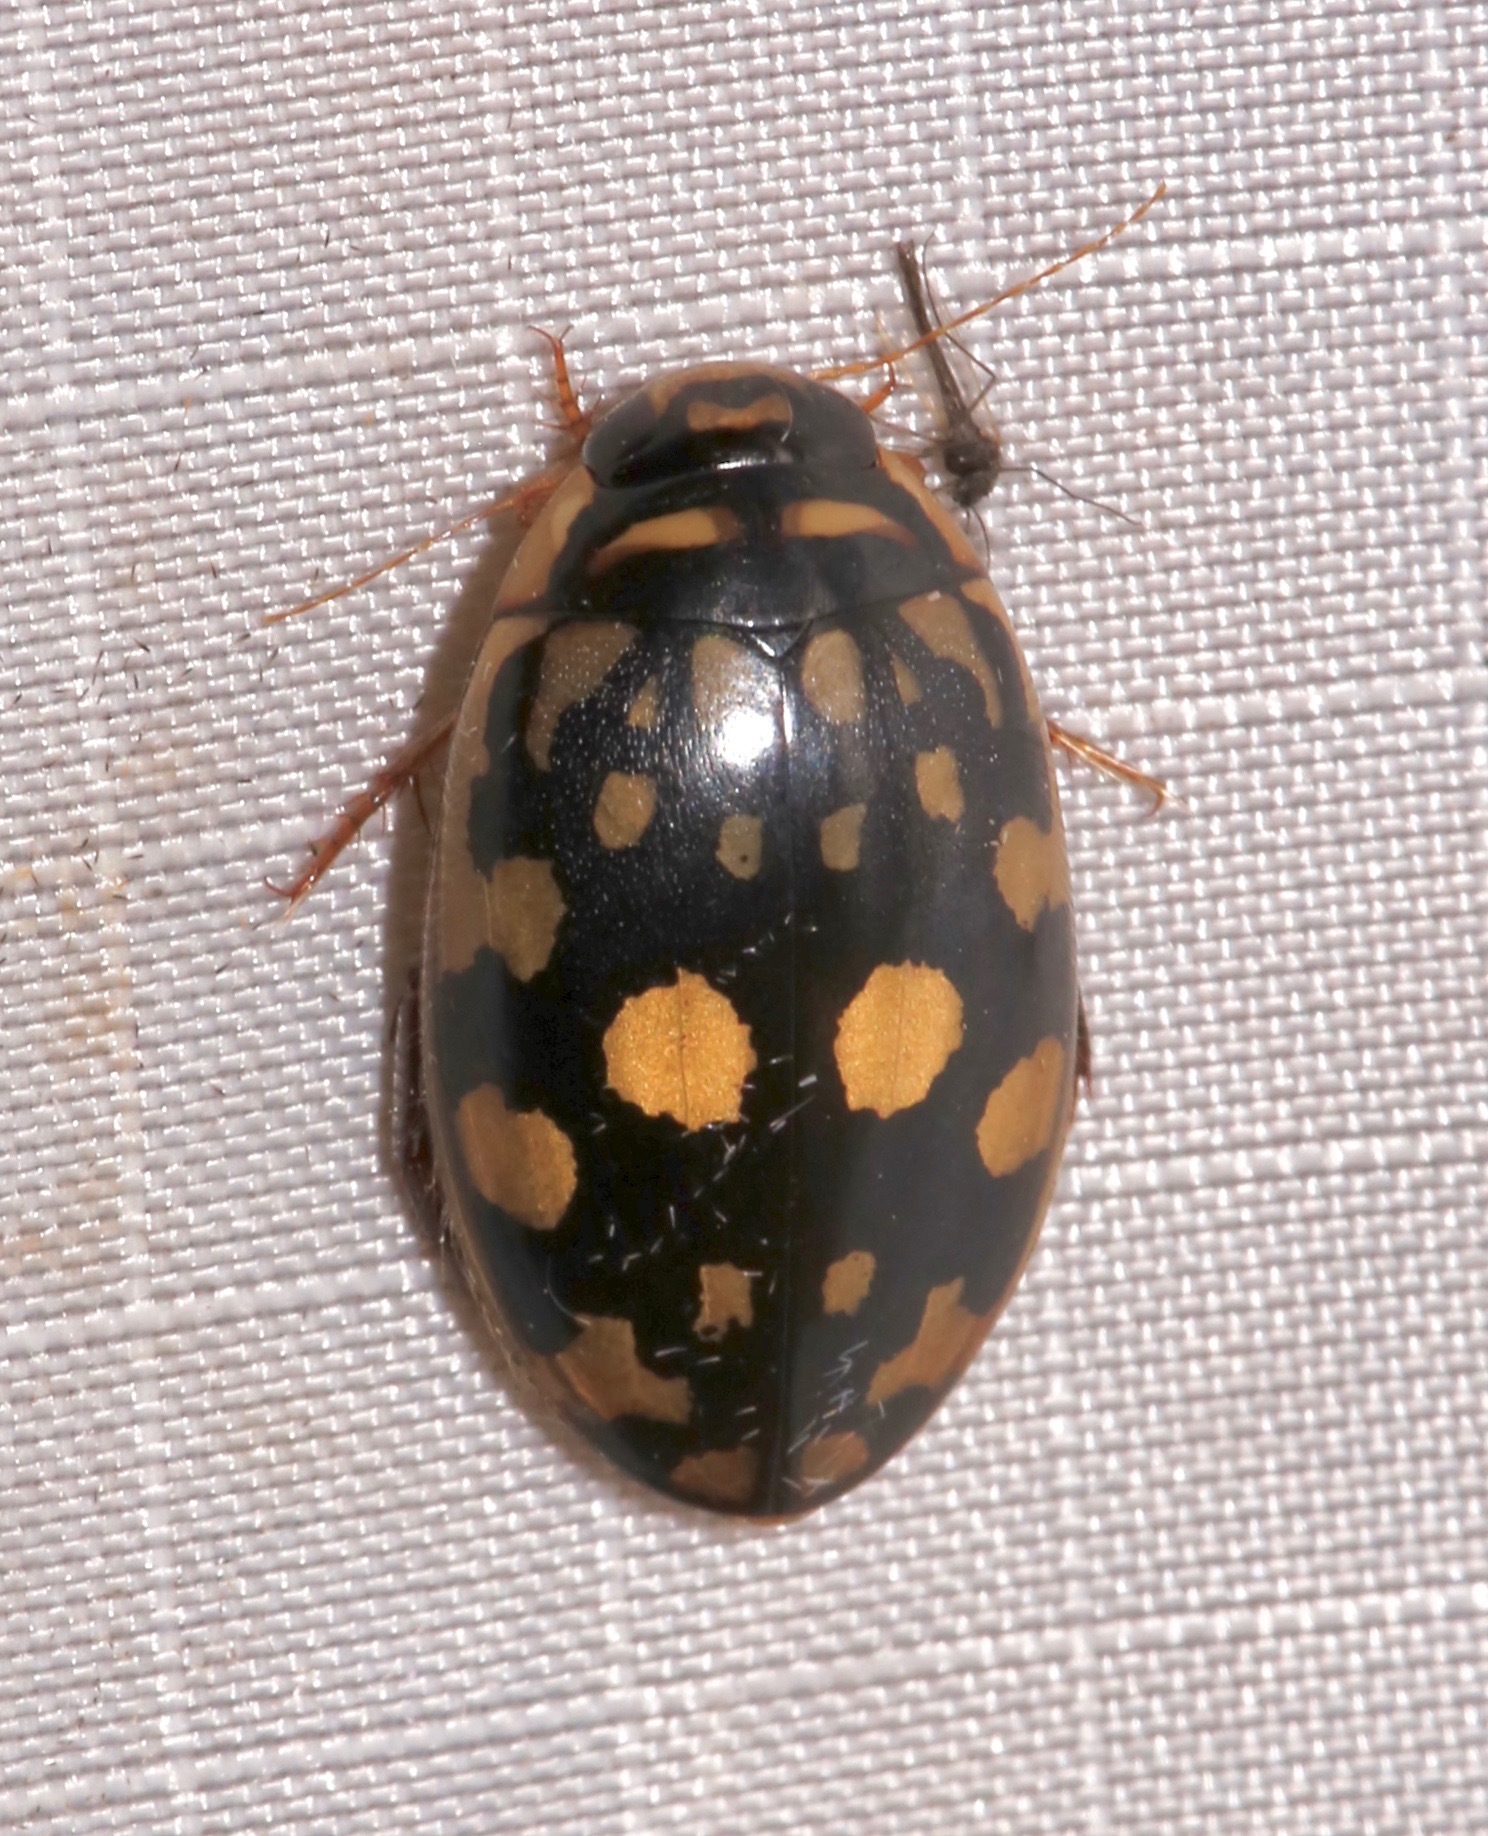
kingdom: Animalia
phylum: Arthropoda
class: Insecta
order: Coleoptera
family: Dytiscidae
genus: Thermonectus
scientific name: Thermonectus marmoratus
